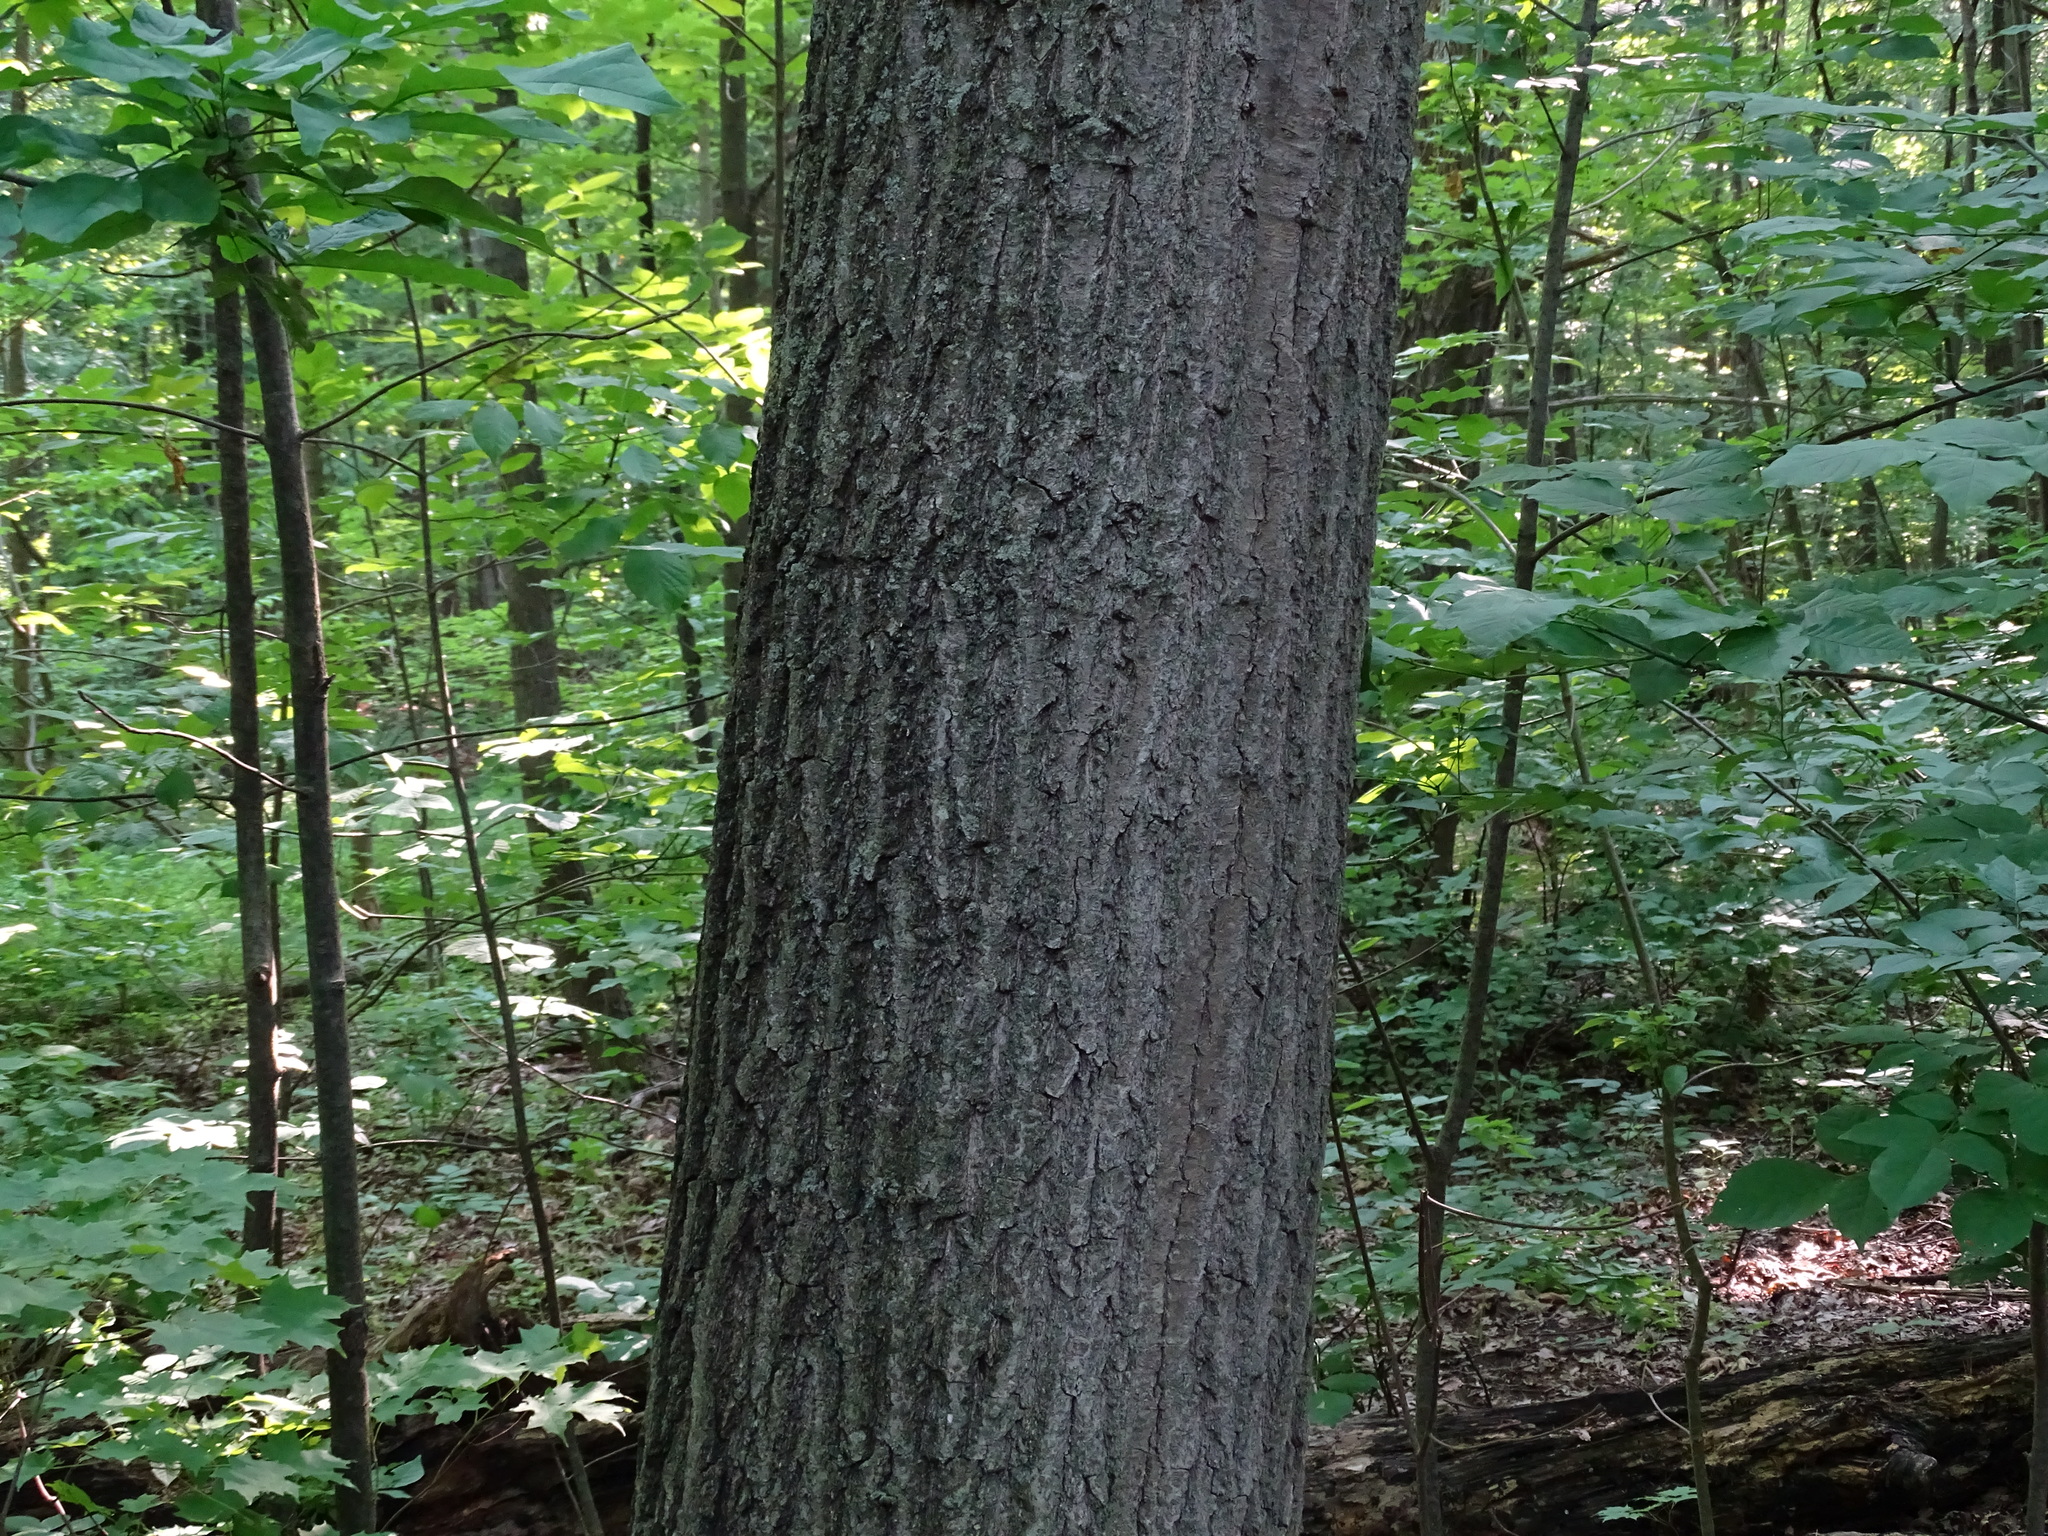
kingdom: Plantae
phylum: Tracheophyta
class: Magnoliopsida
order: Fagales
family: Fagaceae
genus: Quercus
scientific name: Quercus rubra
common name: Red oak
